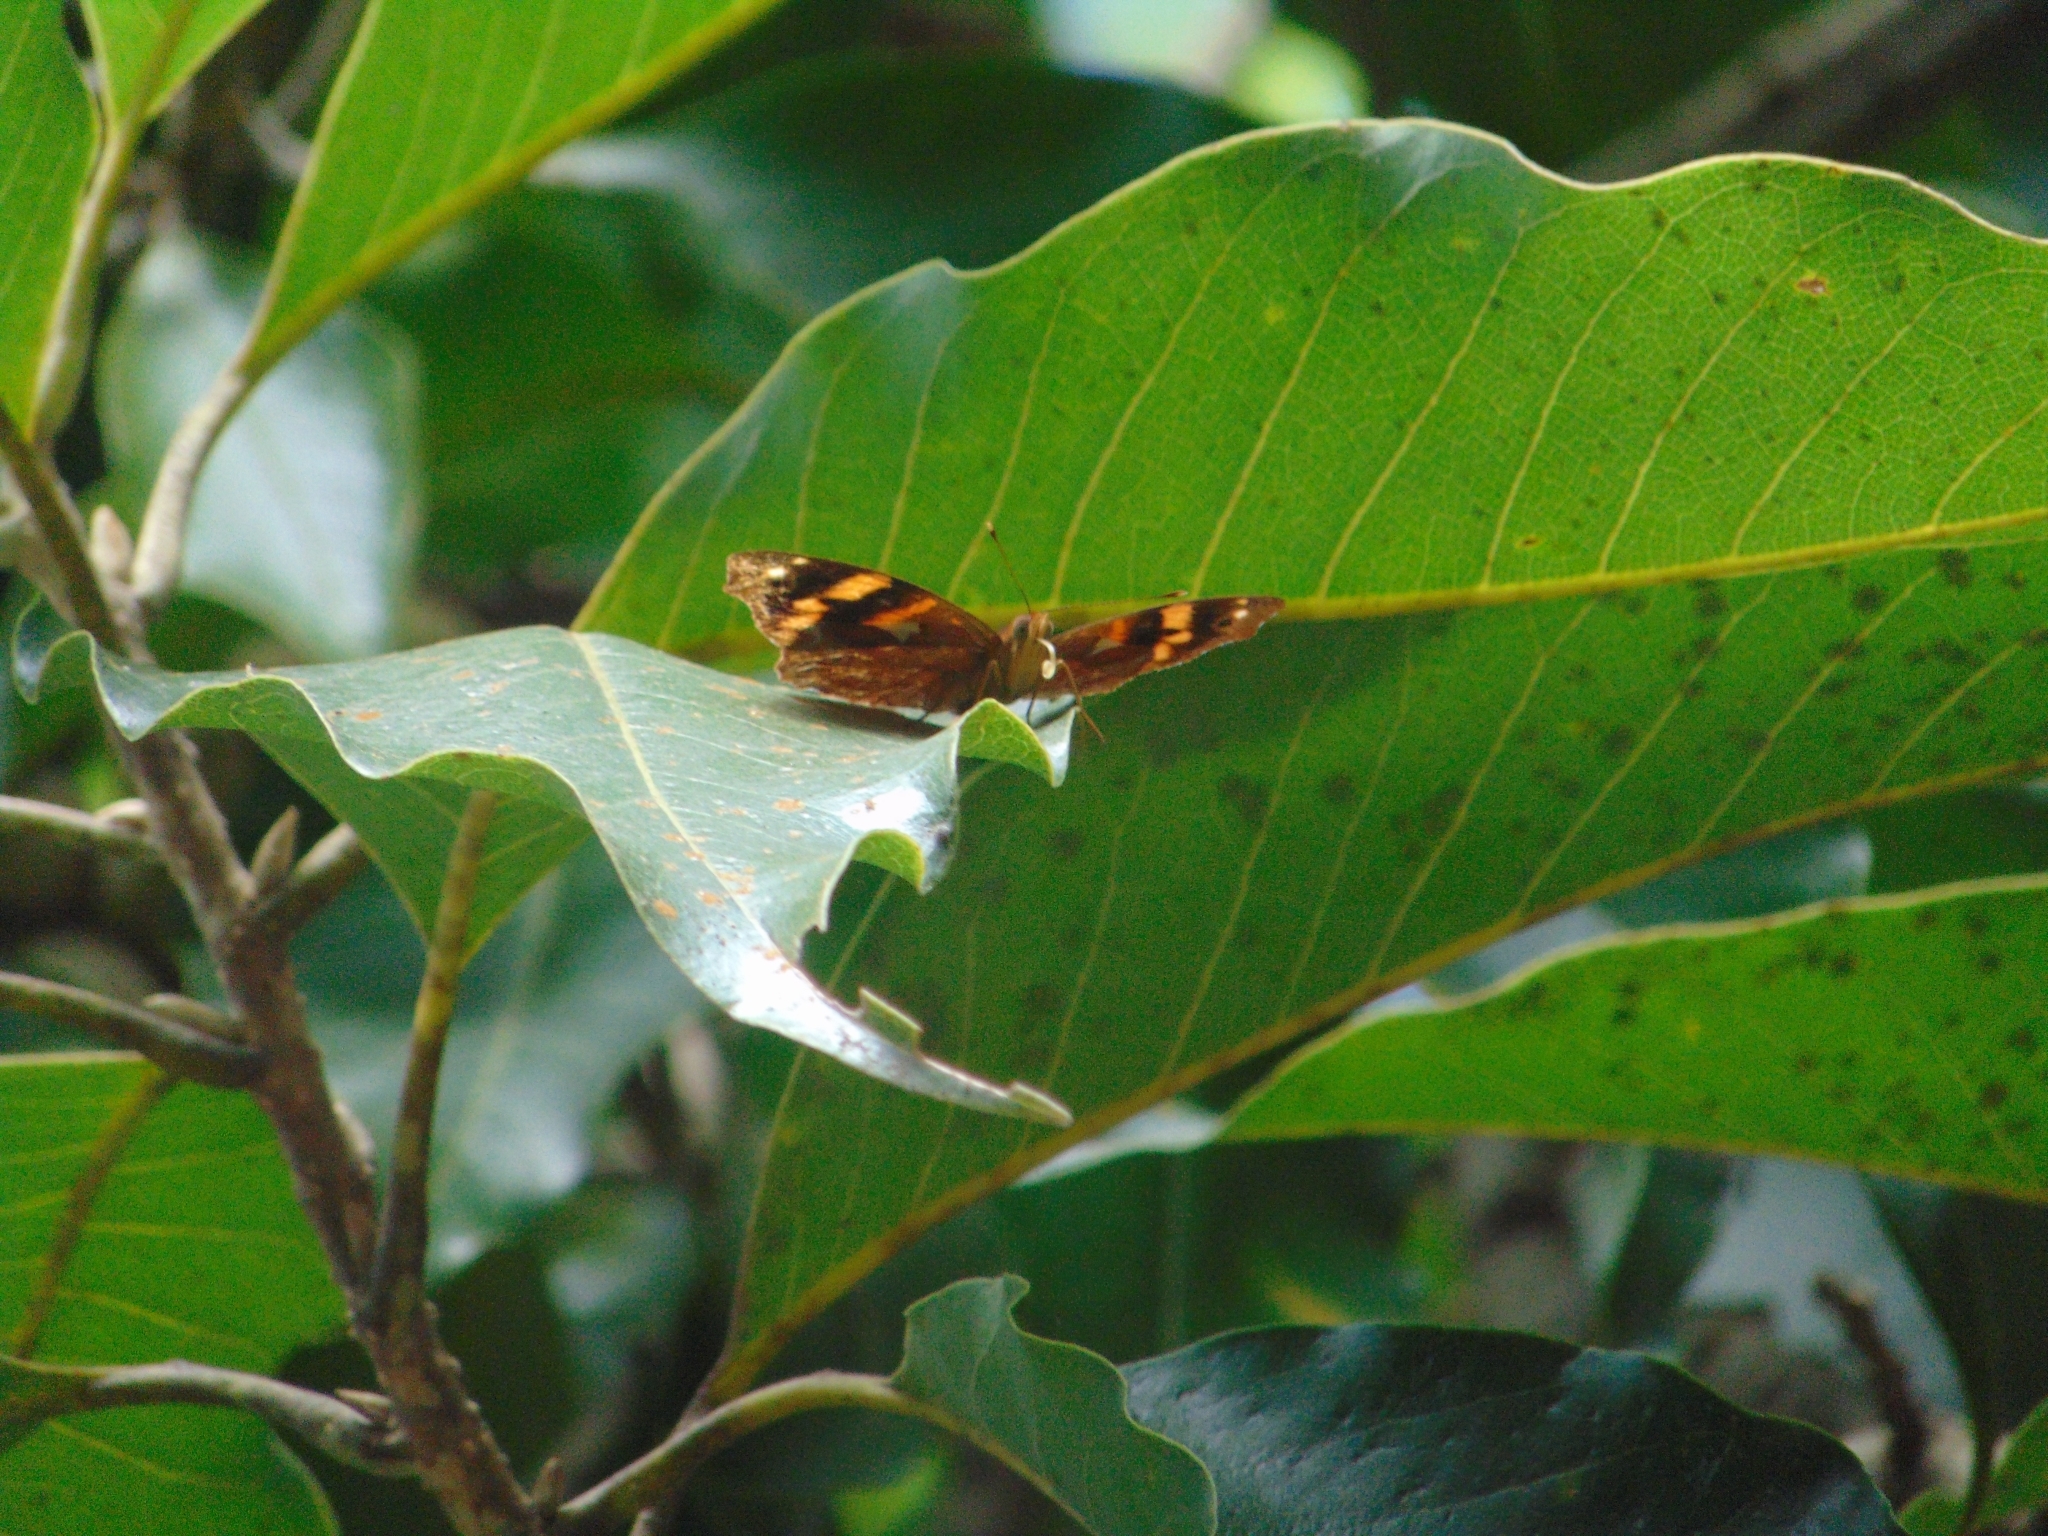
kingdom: Animalia
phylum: Arthropoda
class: Insecta
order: Lepidoptera
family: Nymphalidae
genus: Epiphile
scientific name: Epiphile orea
